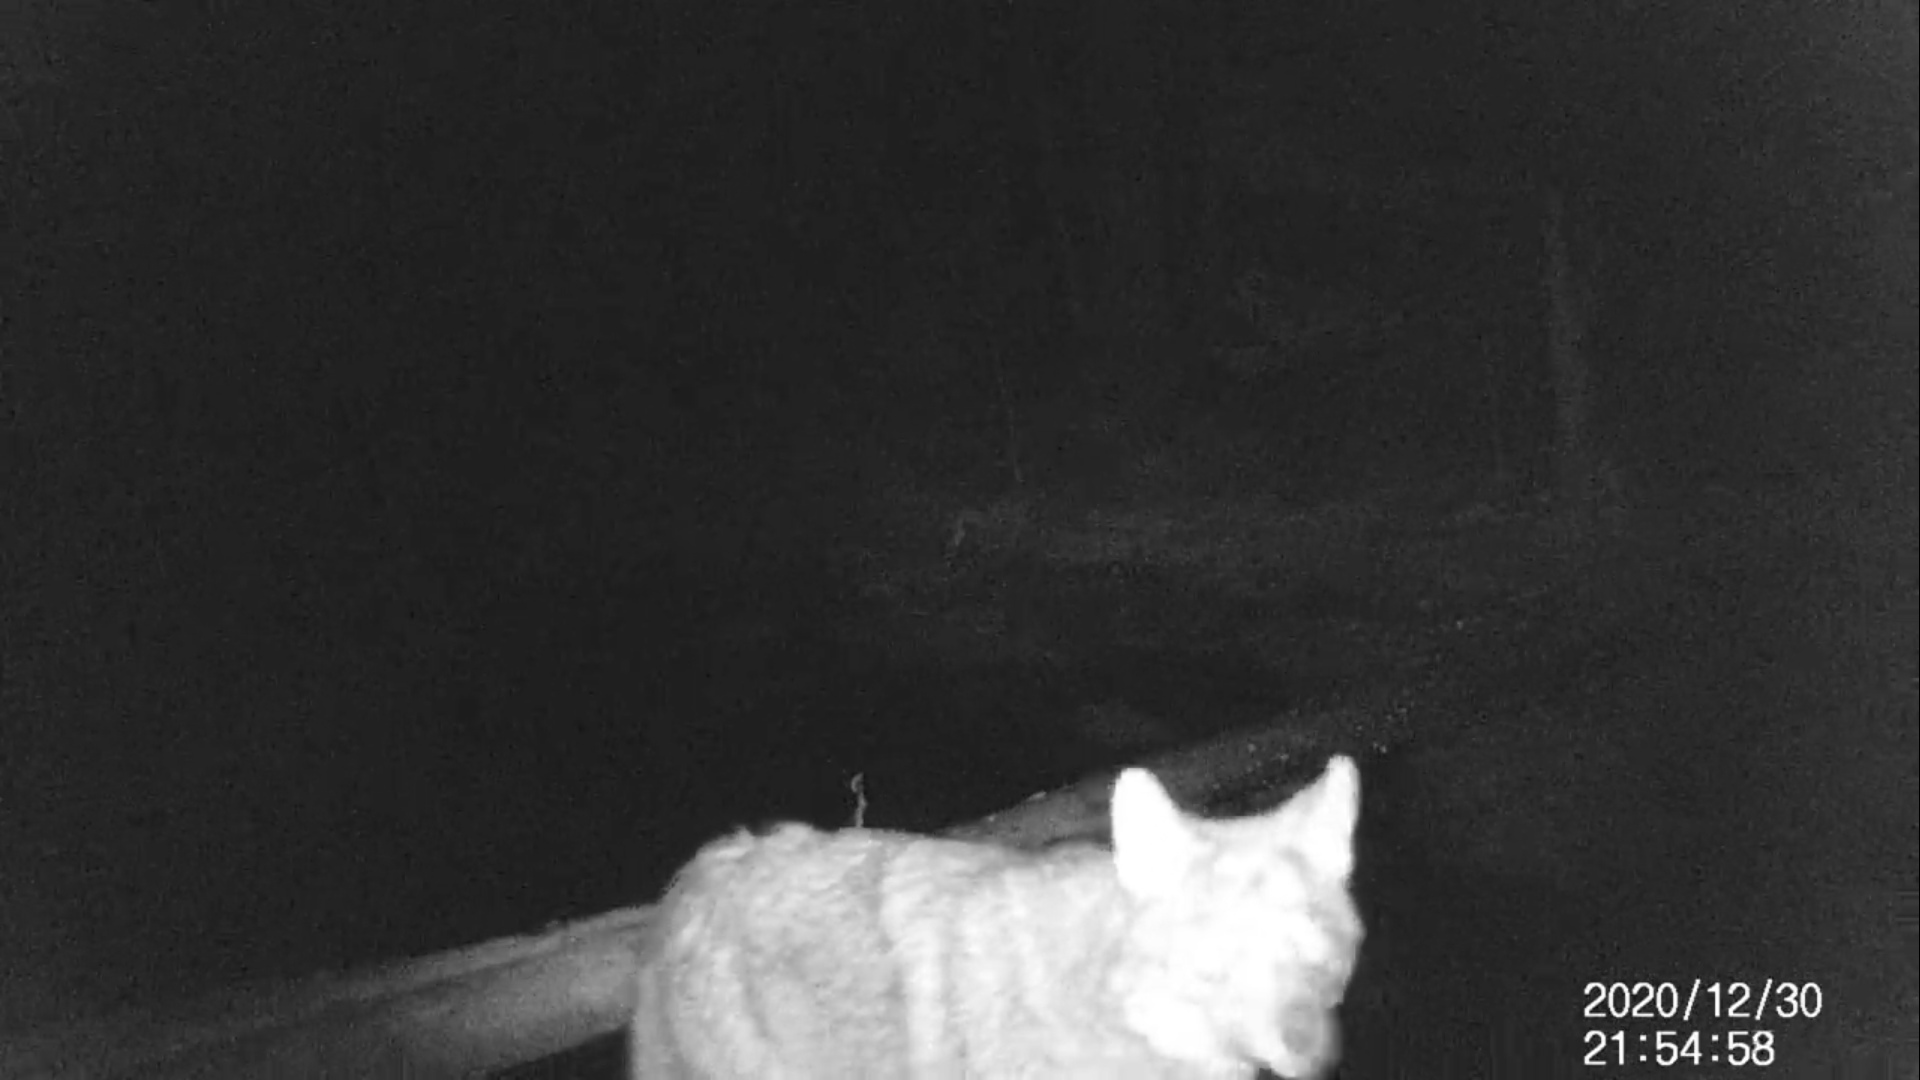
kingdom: Animalia
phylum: Chordata
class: Mammalia
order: Carnivora
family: Canidae
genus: Canis
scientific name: Canis latrans
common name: Coyote
